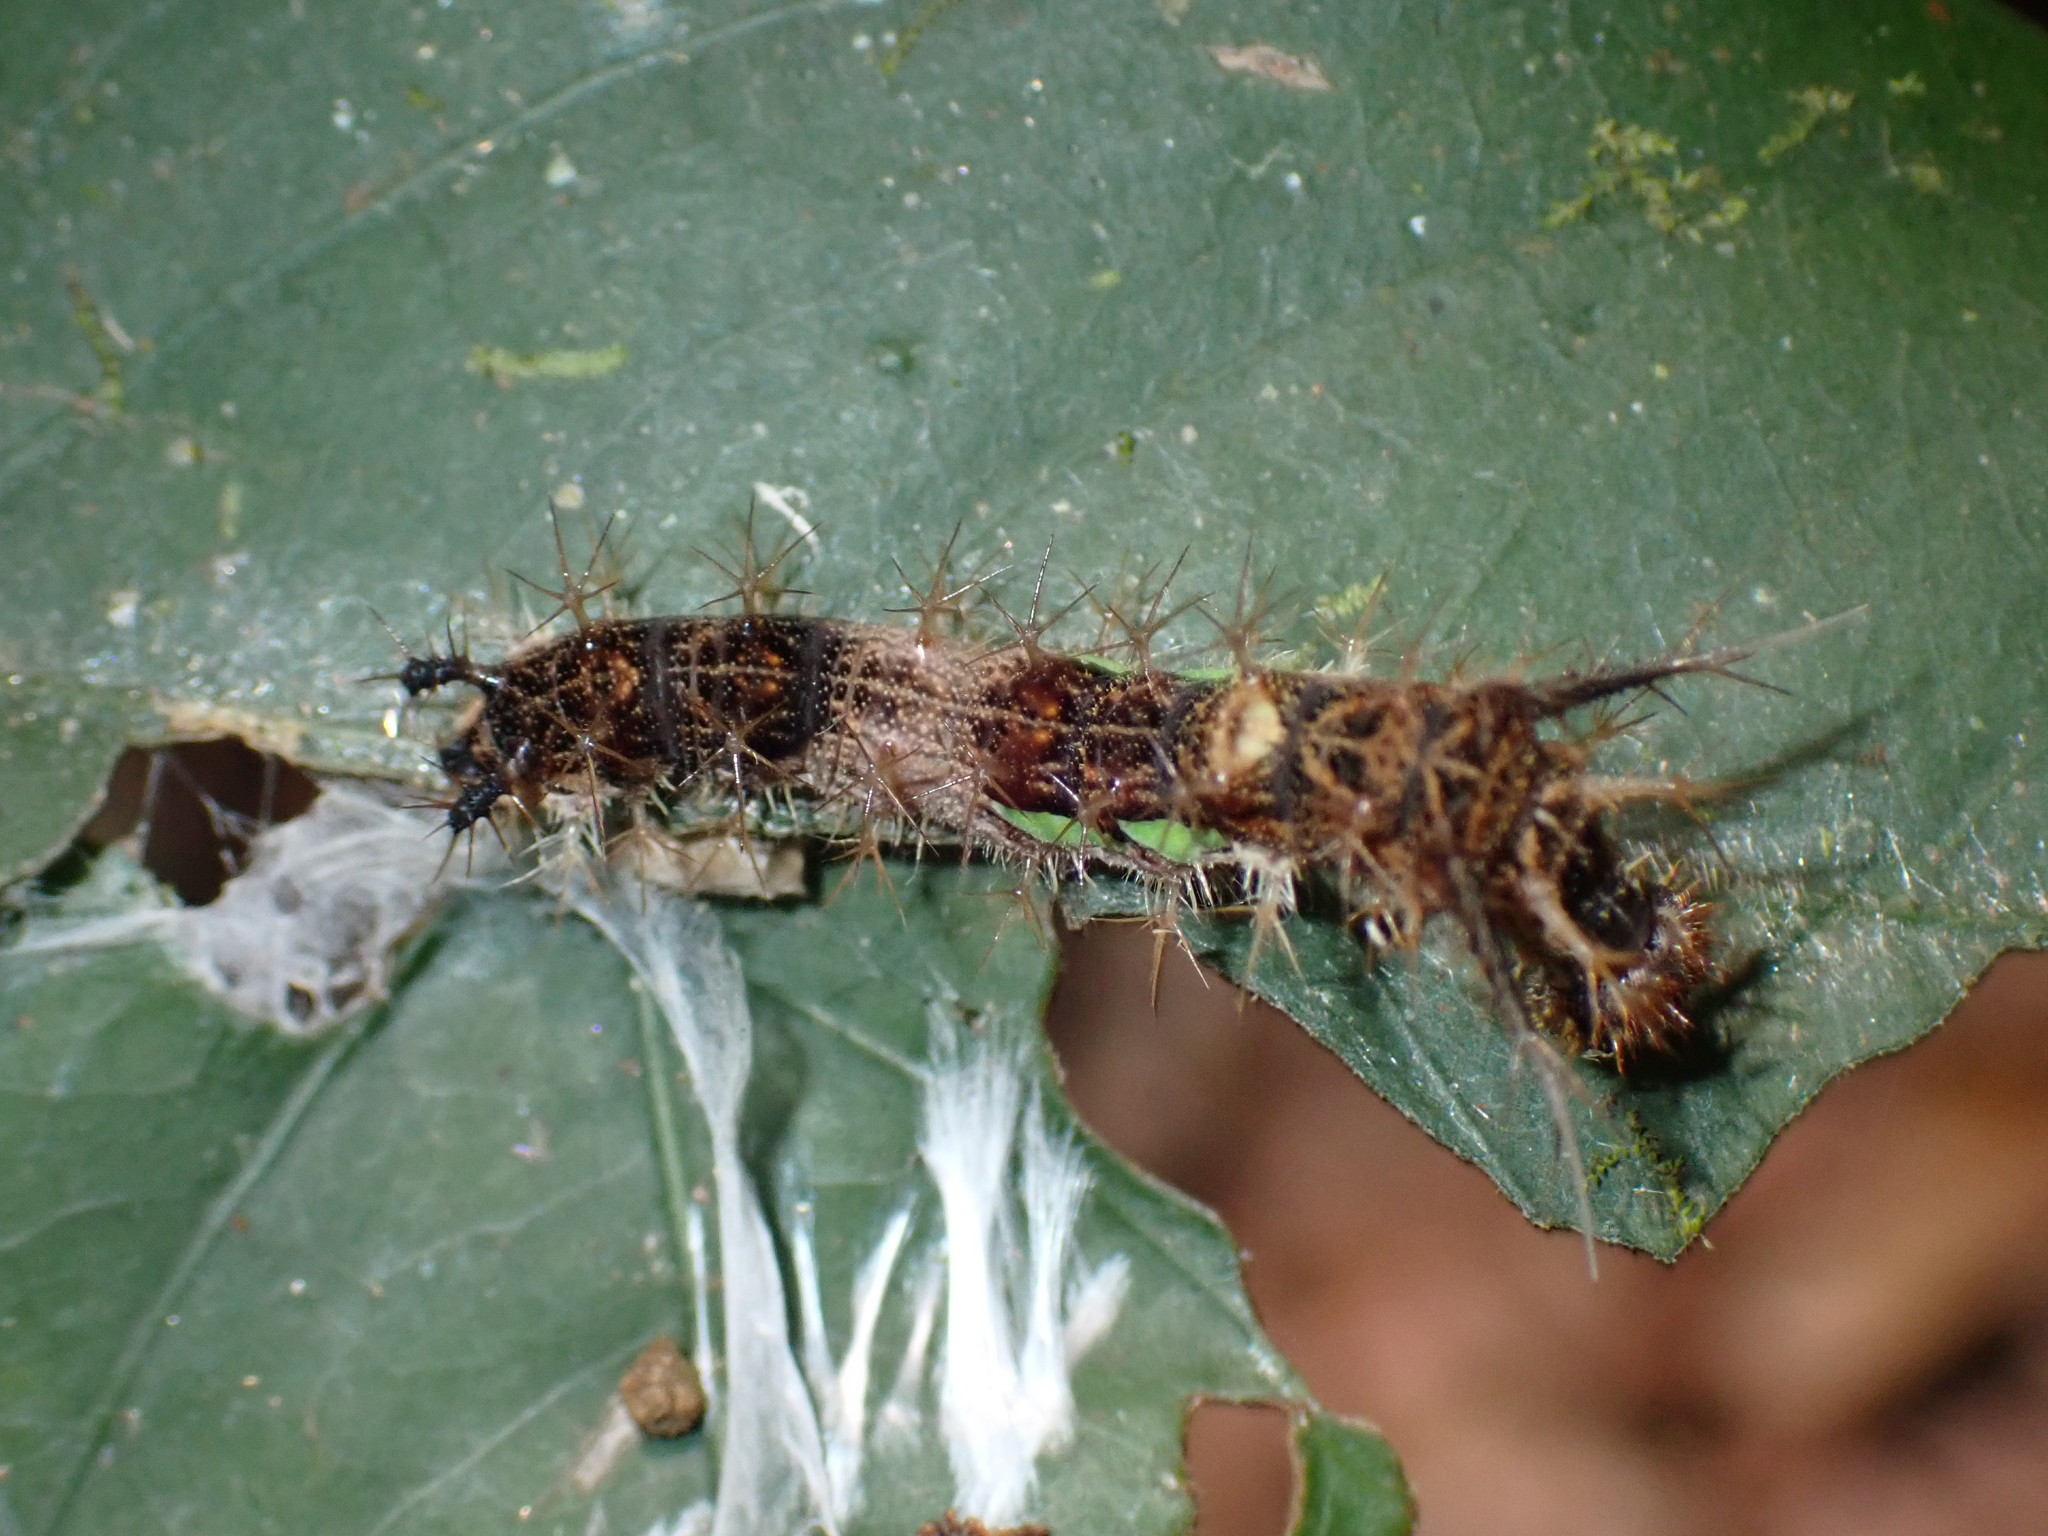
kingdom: Animalia
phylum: Arthropoda
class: Insecta
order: Lepidoptera
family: Nymphalidae
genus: Lebadea
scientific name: Lebadea martha
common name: Knight
